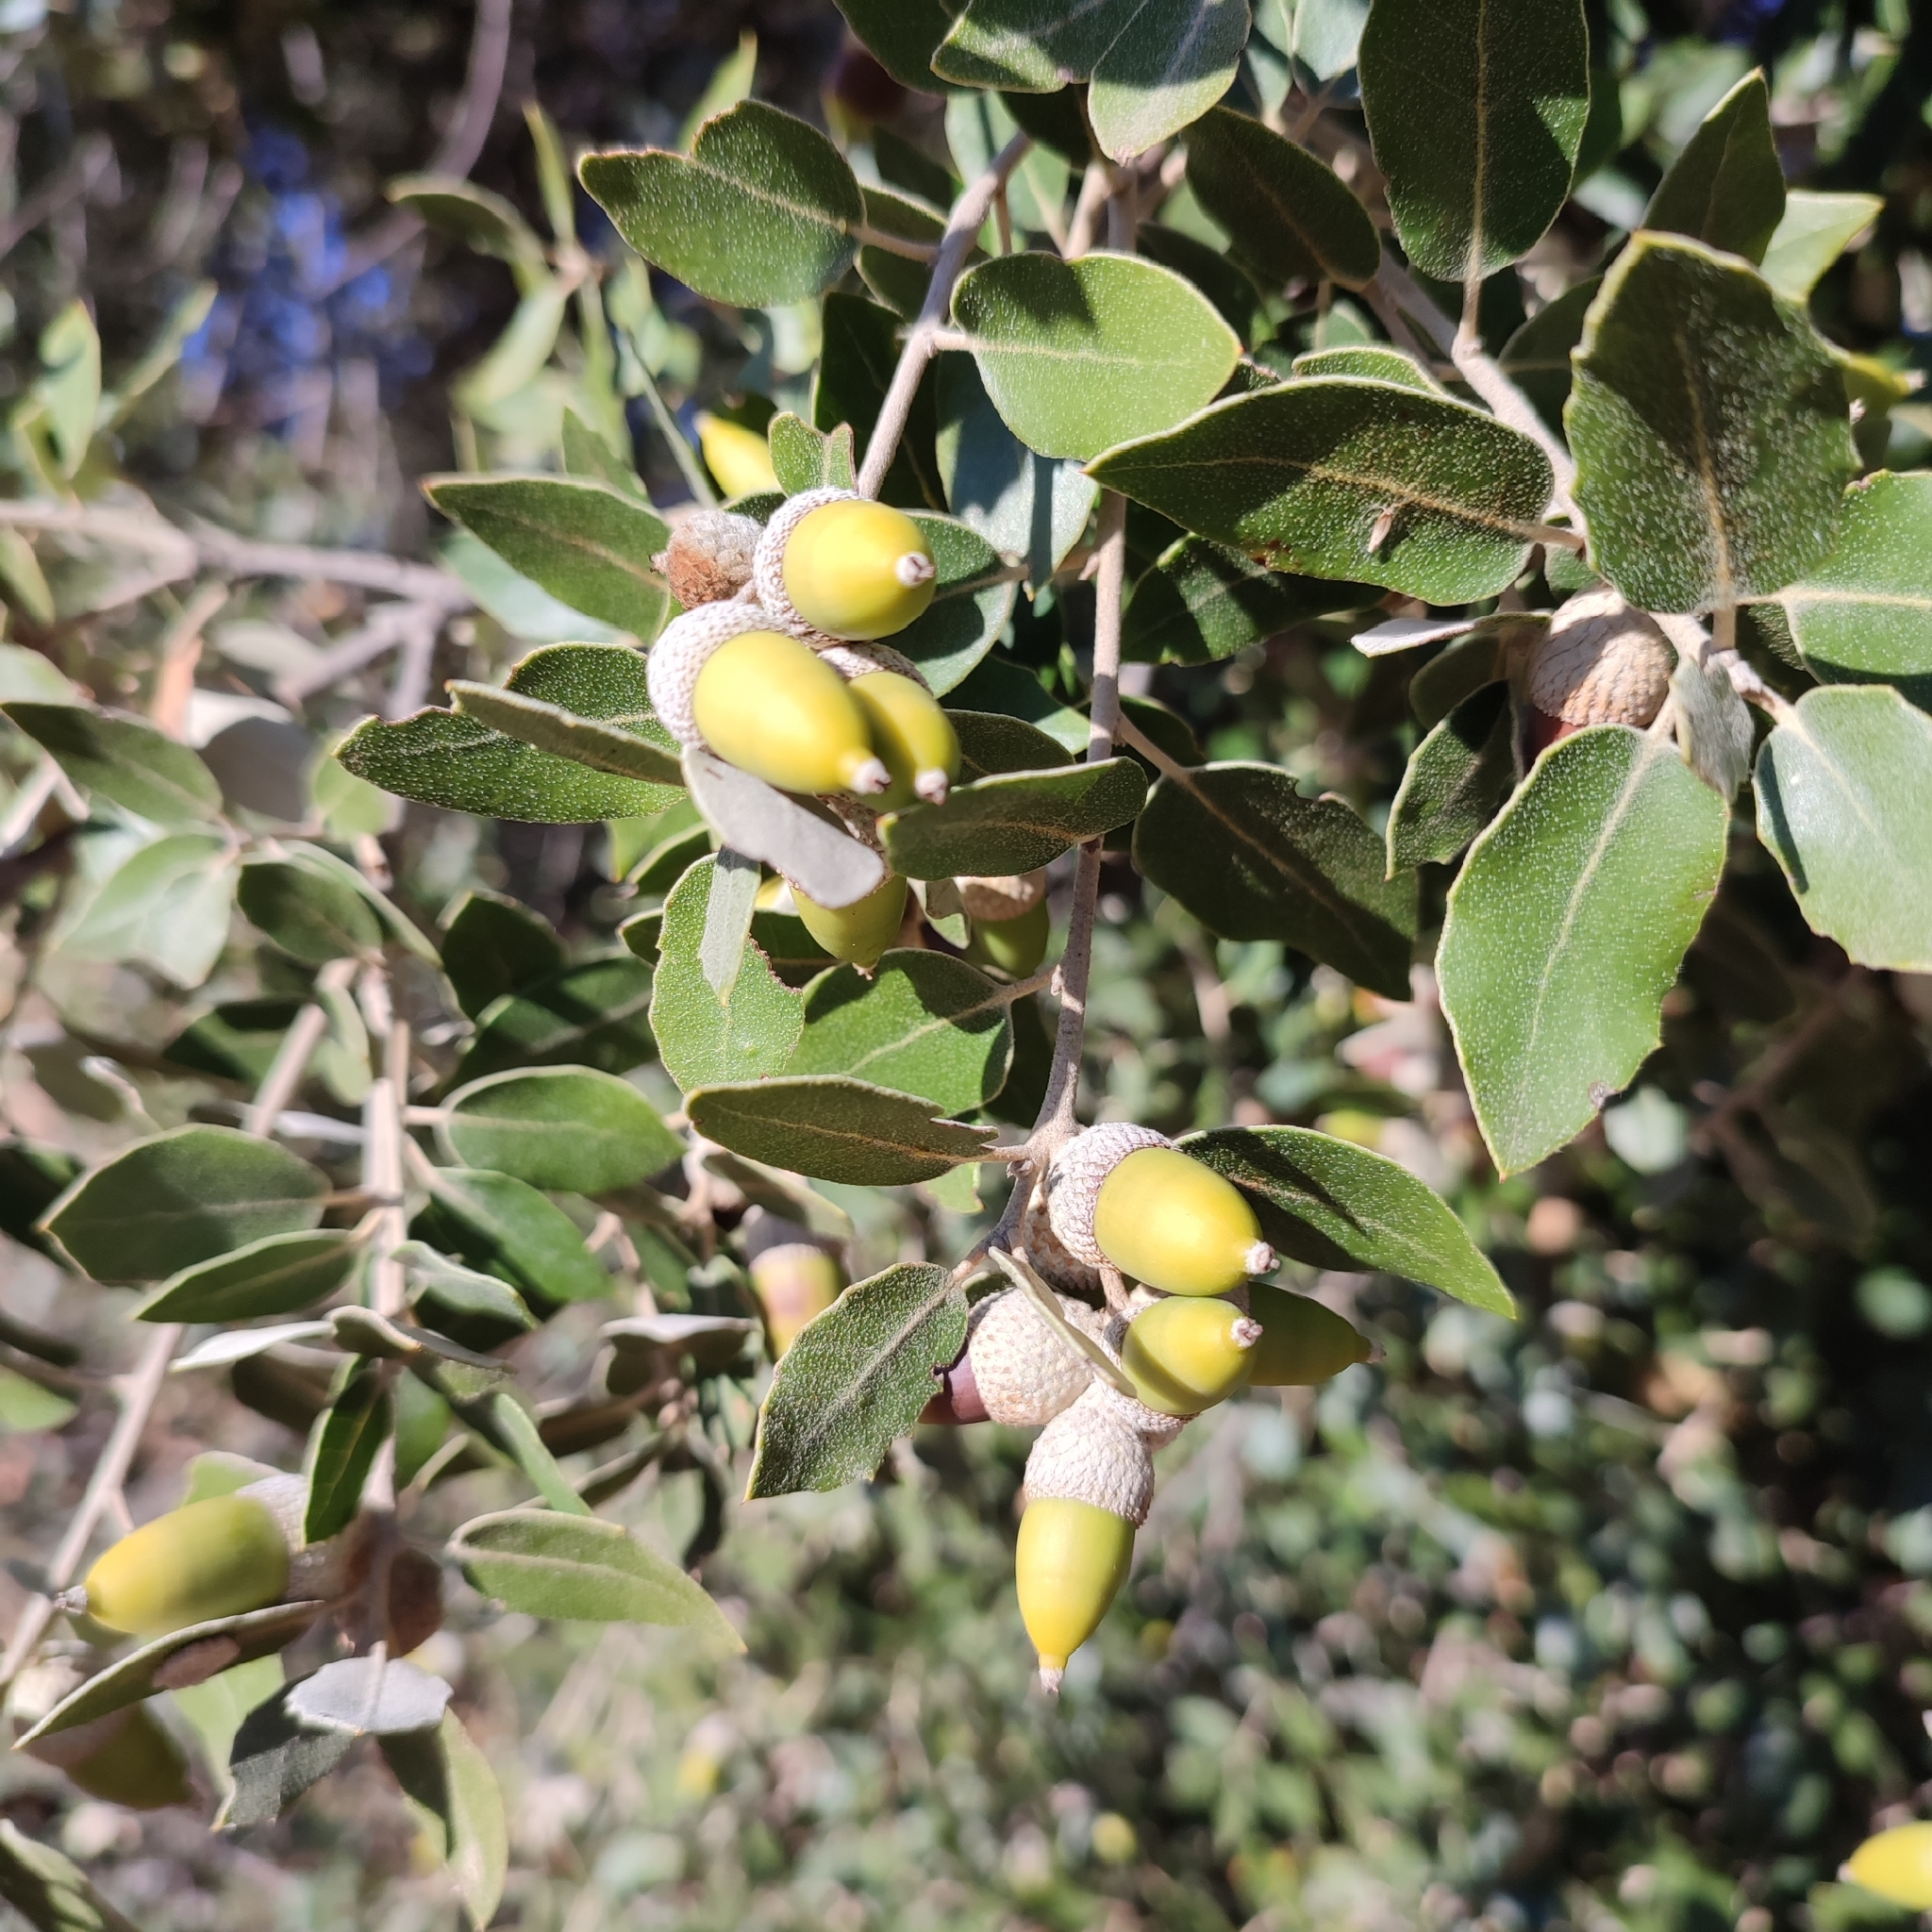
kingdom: Plantae
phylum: Tracheophyta
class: Magnoliopsida
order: Fagales
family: Fagaceae
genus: Quercus
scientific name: Quercus ilex
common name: Evergreen oak
